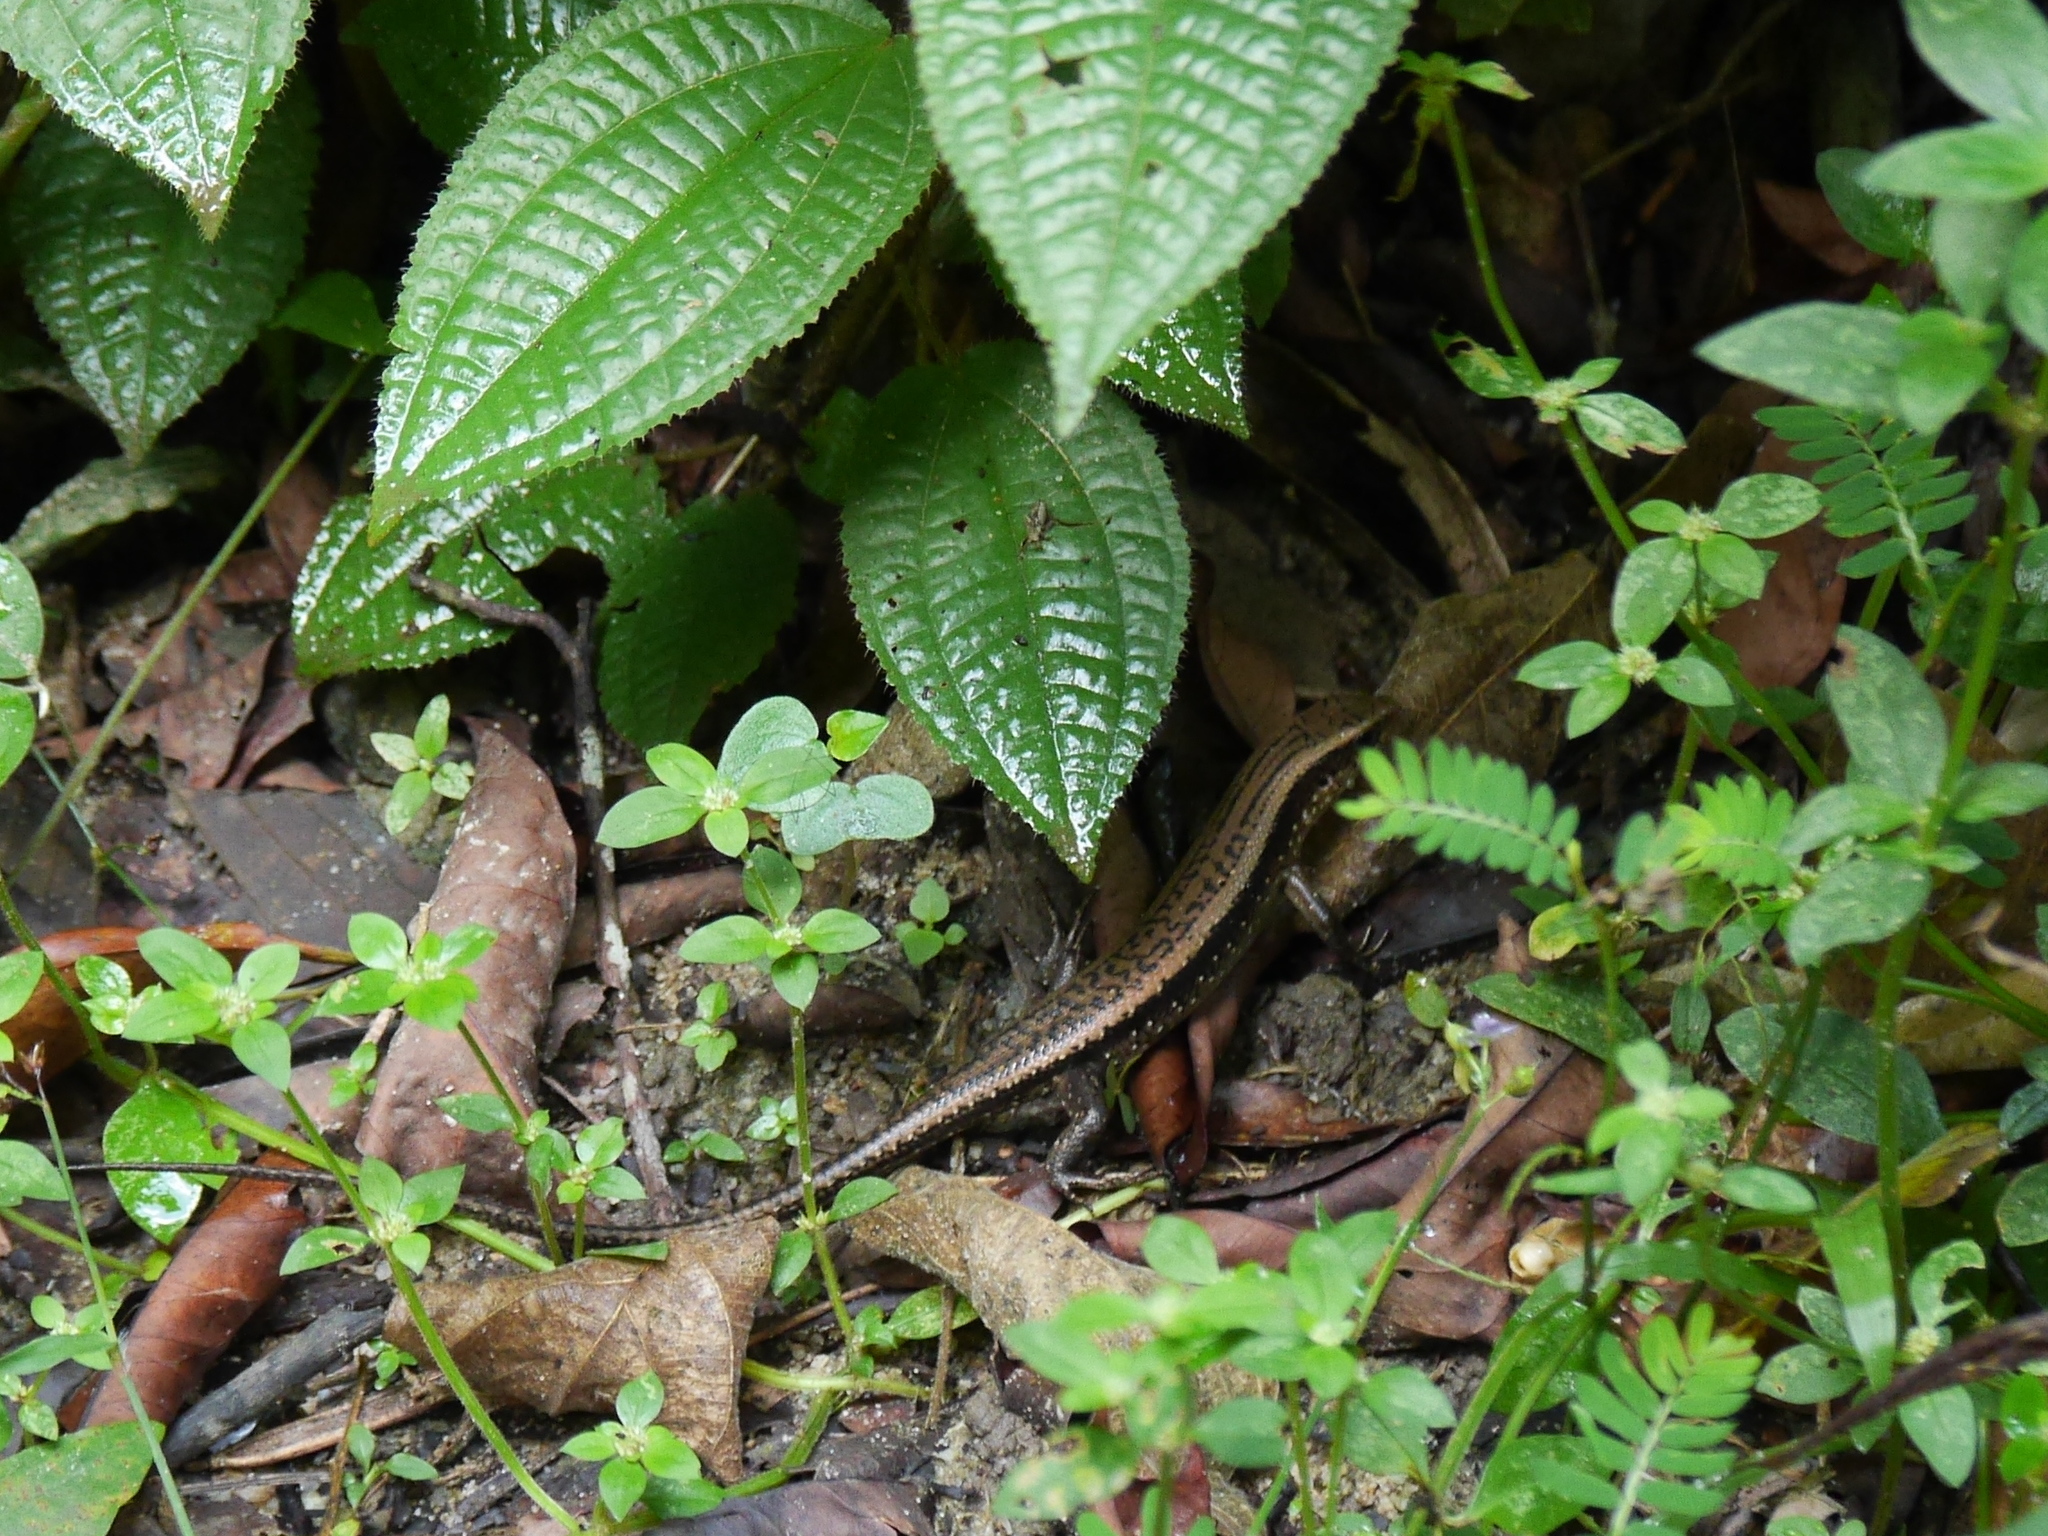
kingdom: Animalia
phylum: Chordata
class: Squamata
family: Scincidae
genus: Eutropis
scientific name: Eutropis multifasciata
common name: Common mabuya
